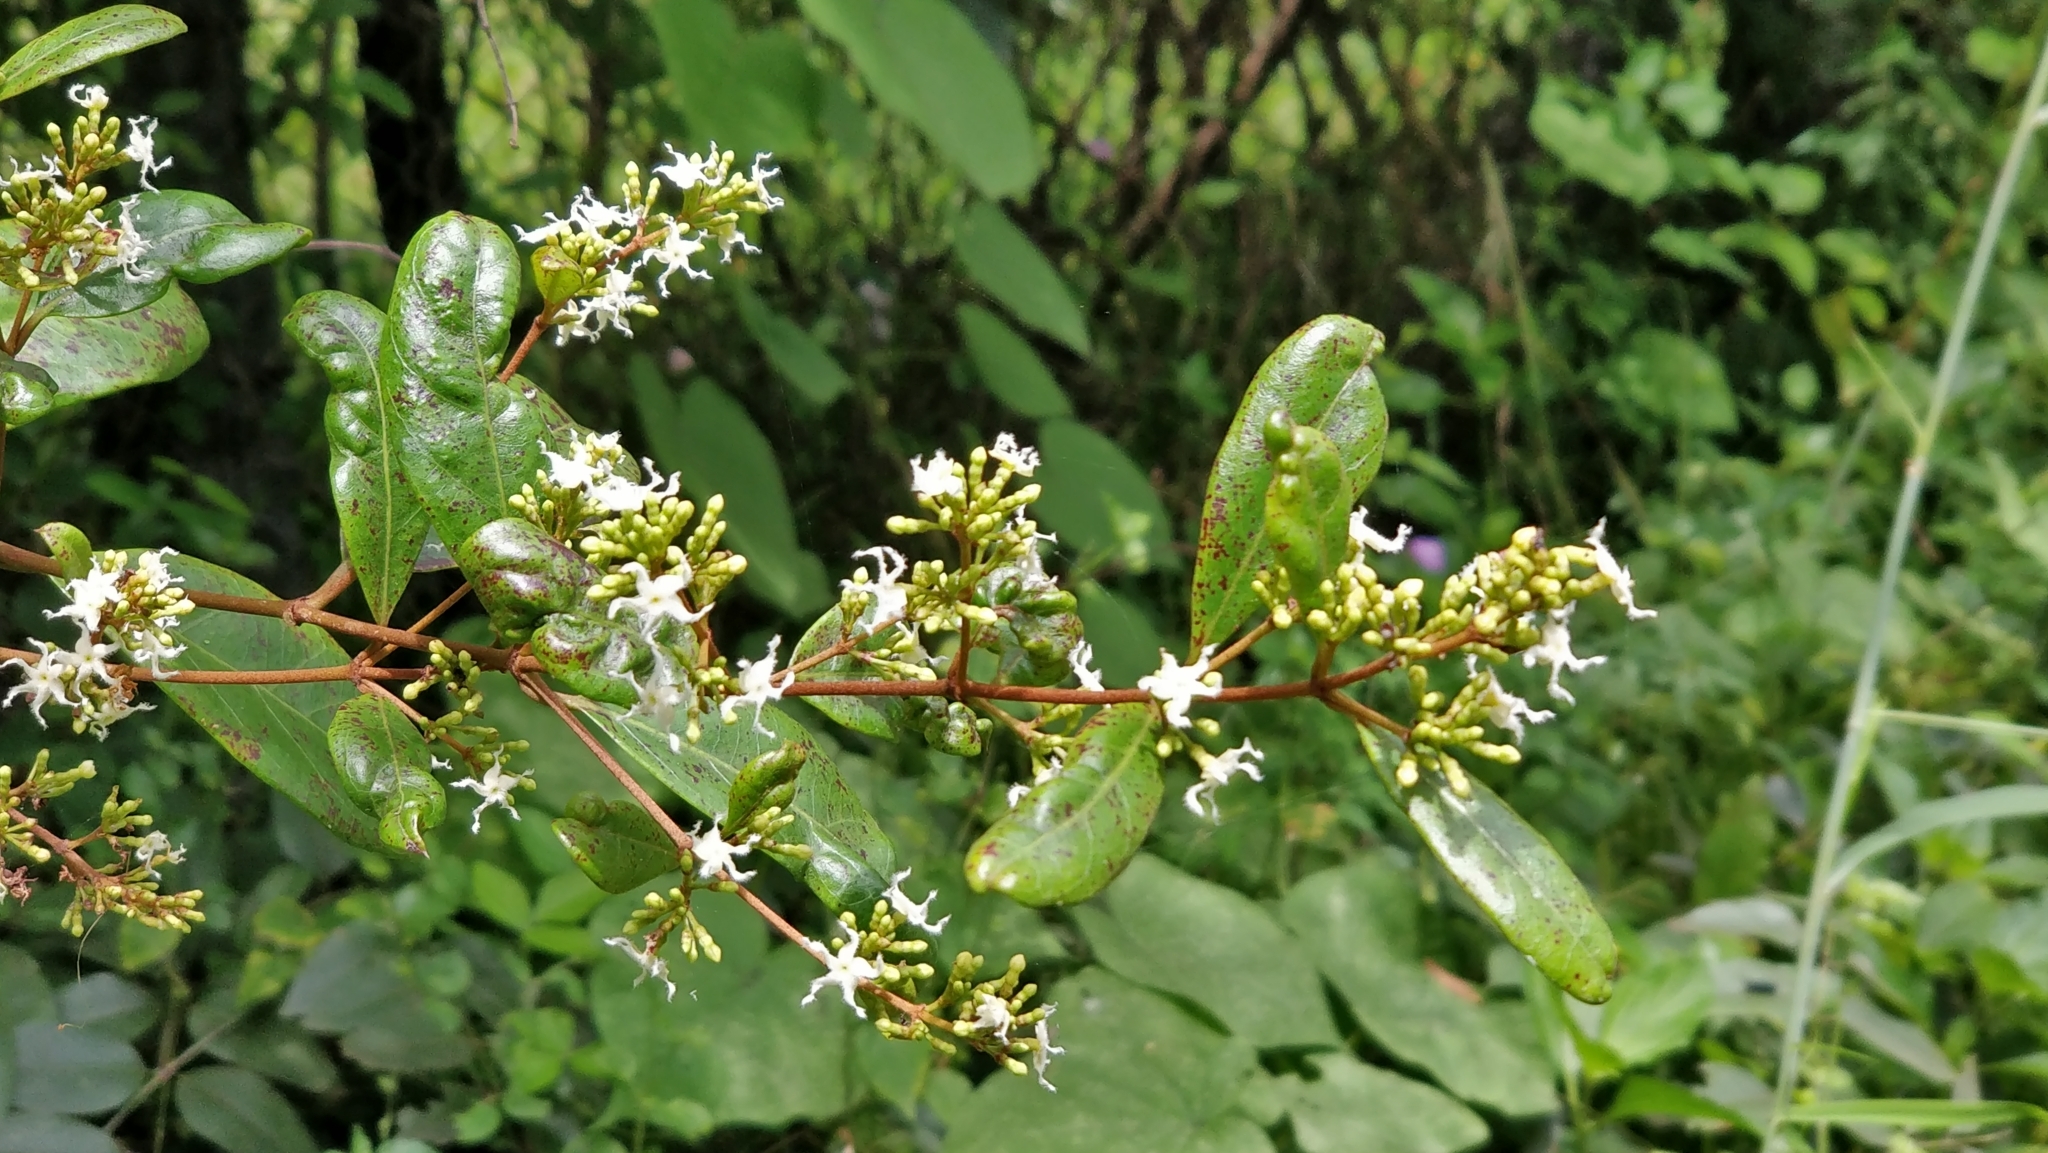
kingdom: Plantae
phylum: Tracheophyta
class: Magnoliopsida
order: Gentianales
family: Apocynaceae
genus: Ichnocarpus
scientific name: Ichnocarpus frutescens
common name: Ichnocarpus
